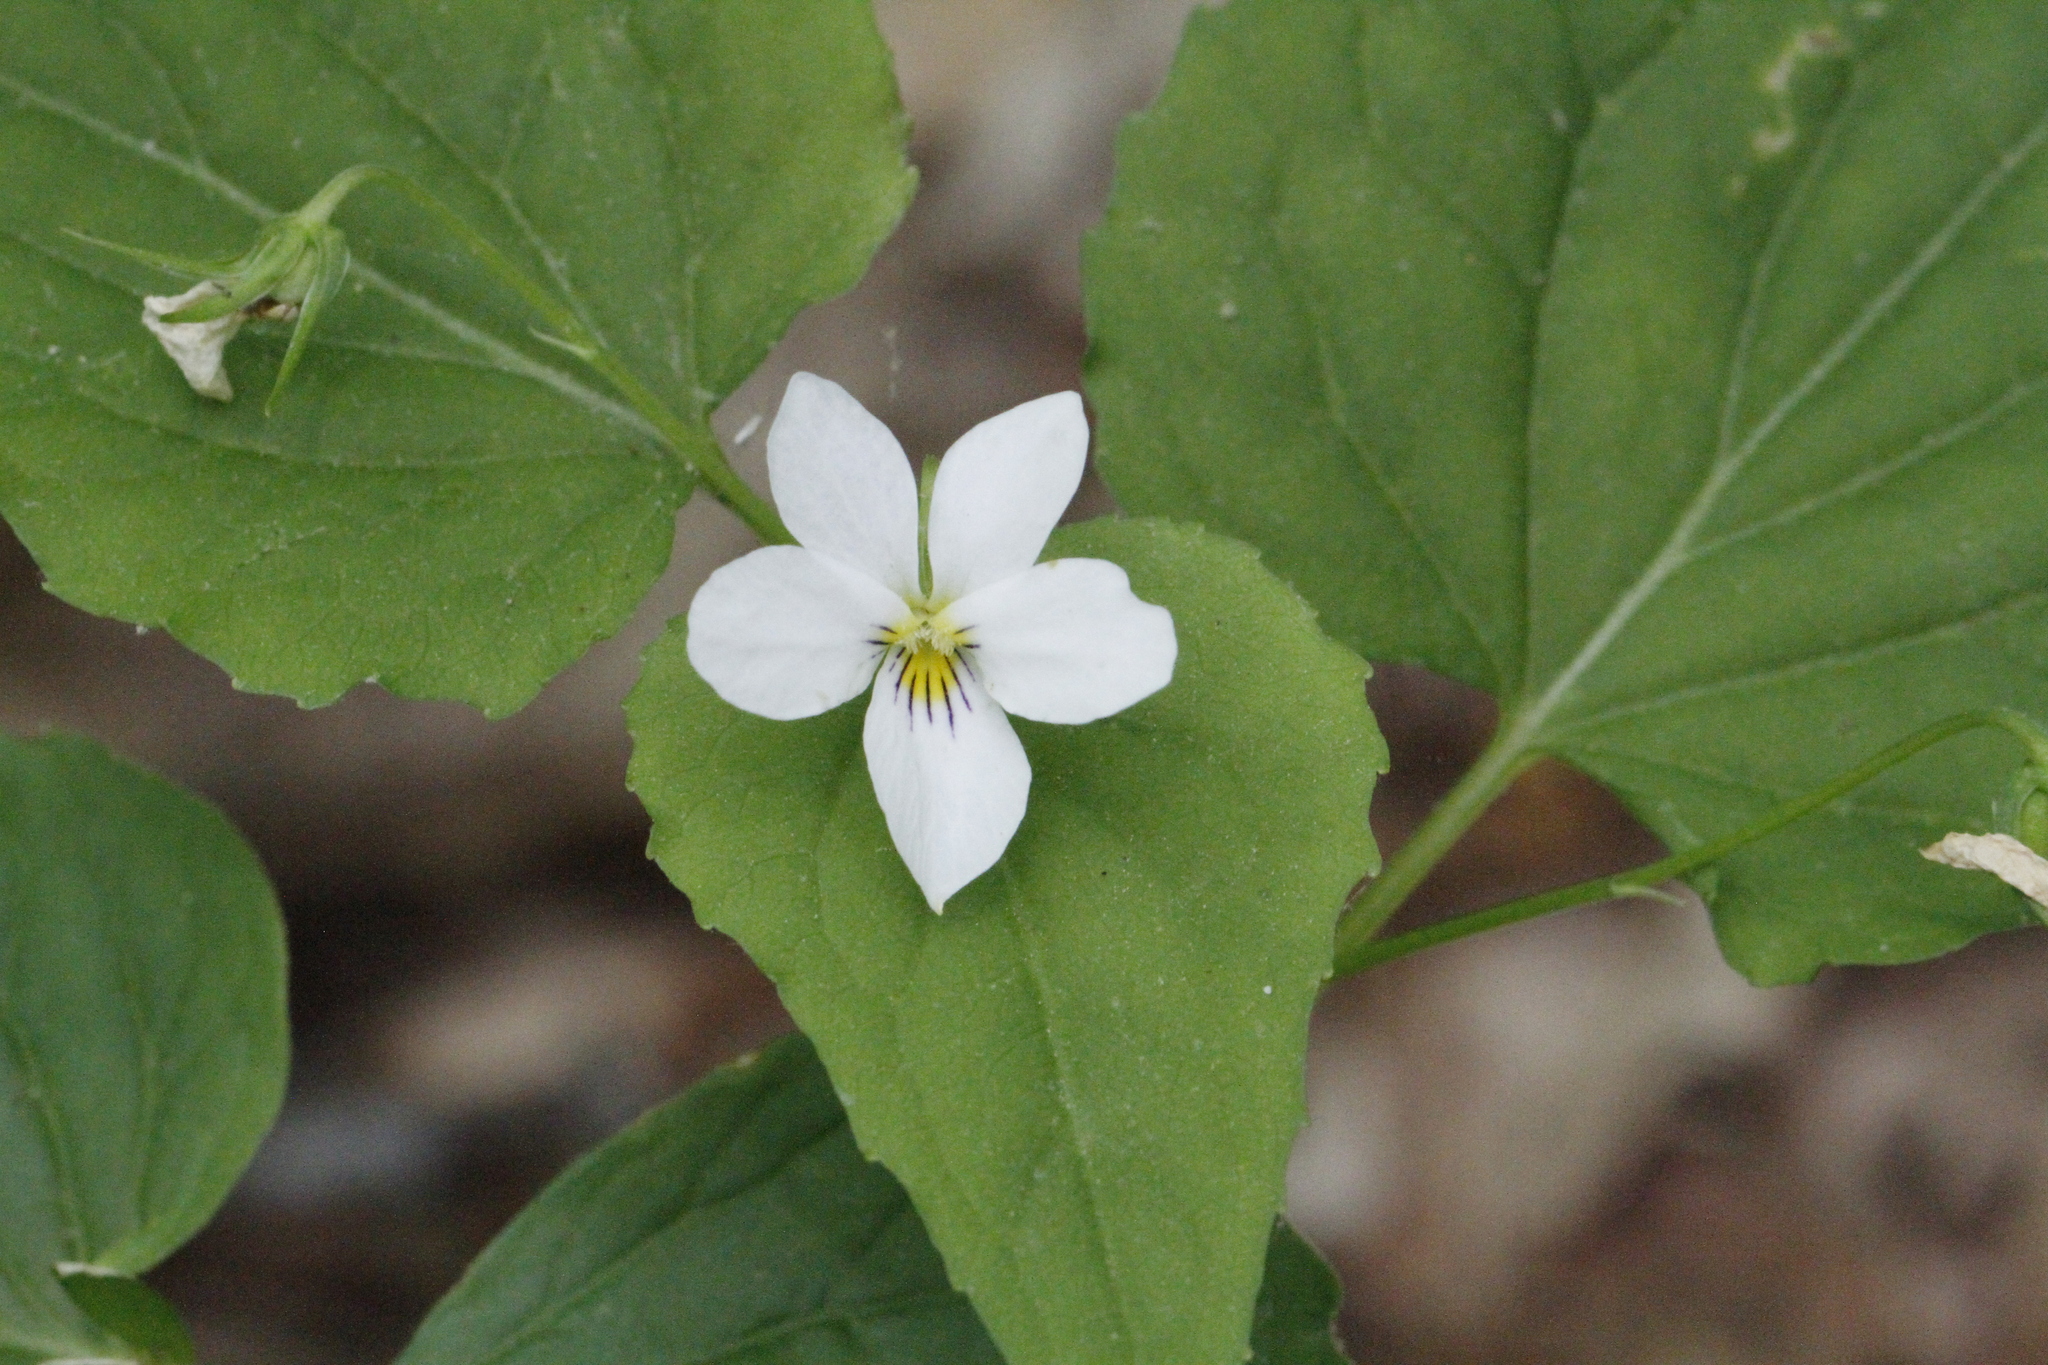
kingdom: Plantae
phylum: Tracheophyta
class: Magnoliopsida
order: Malpighiales
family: Violaceae
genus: Viola
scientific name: Viola canadensis
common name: Canada violet
